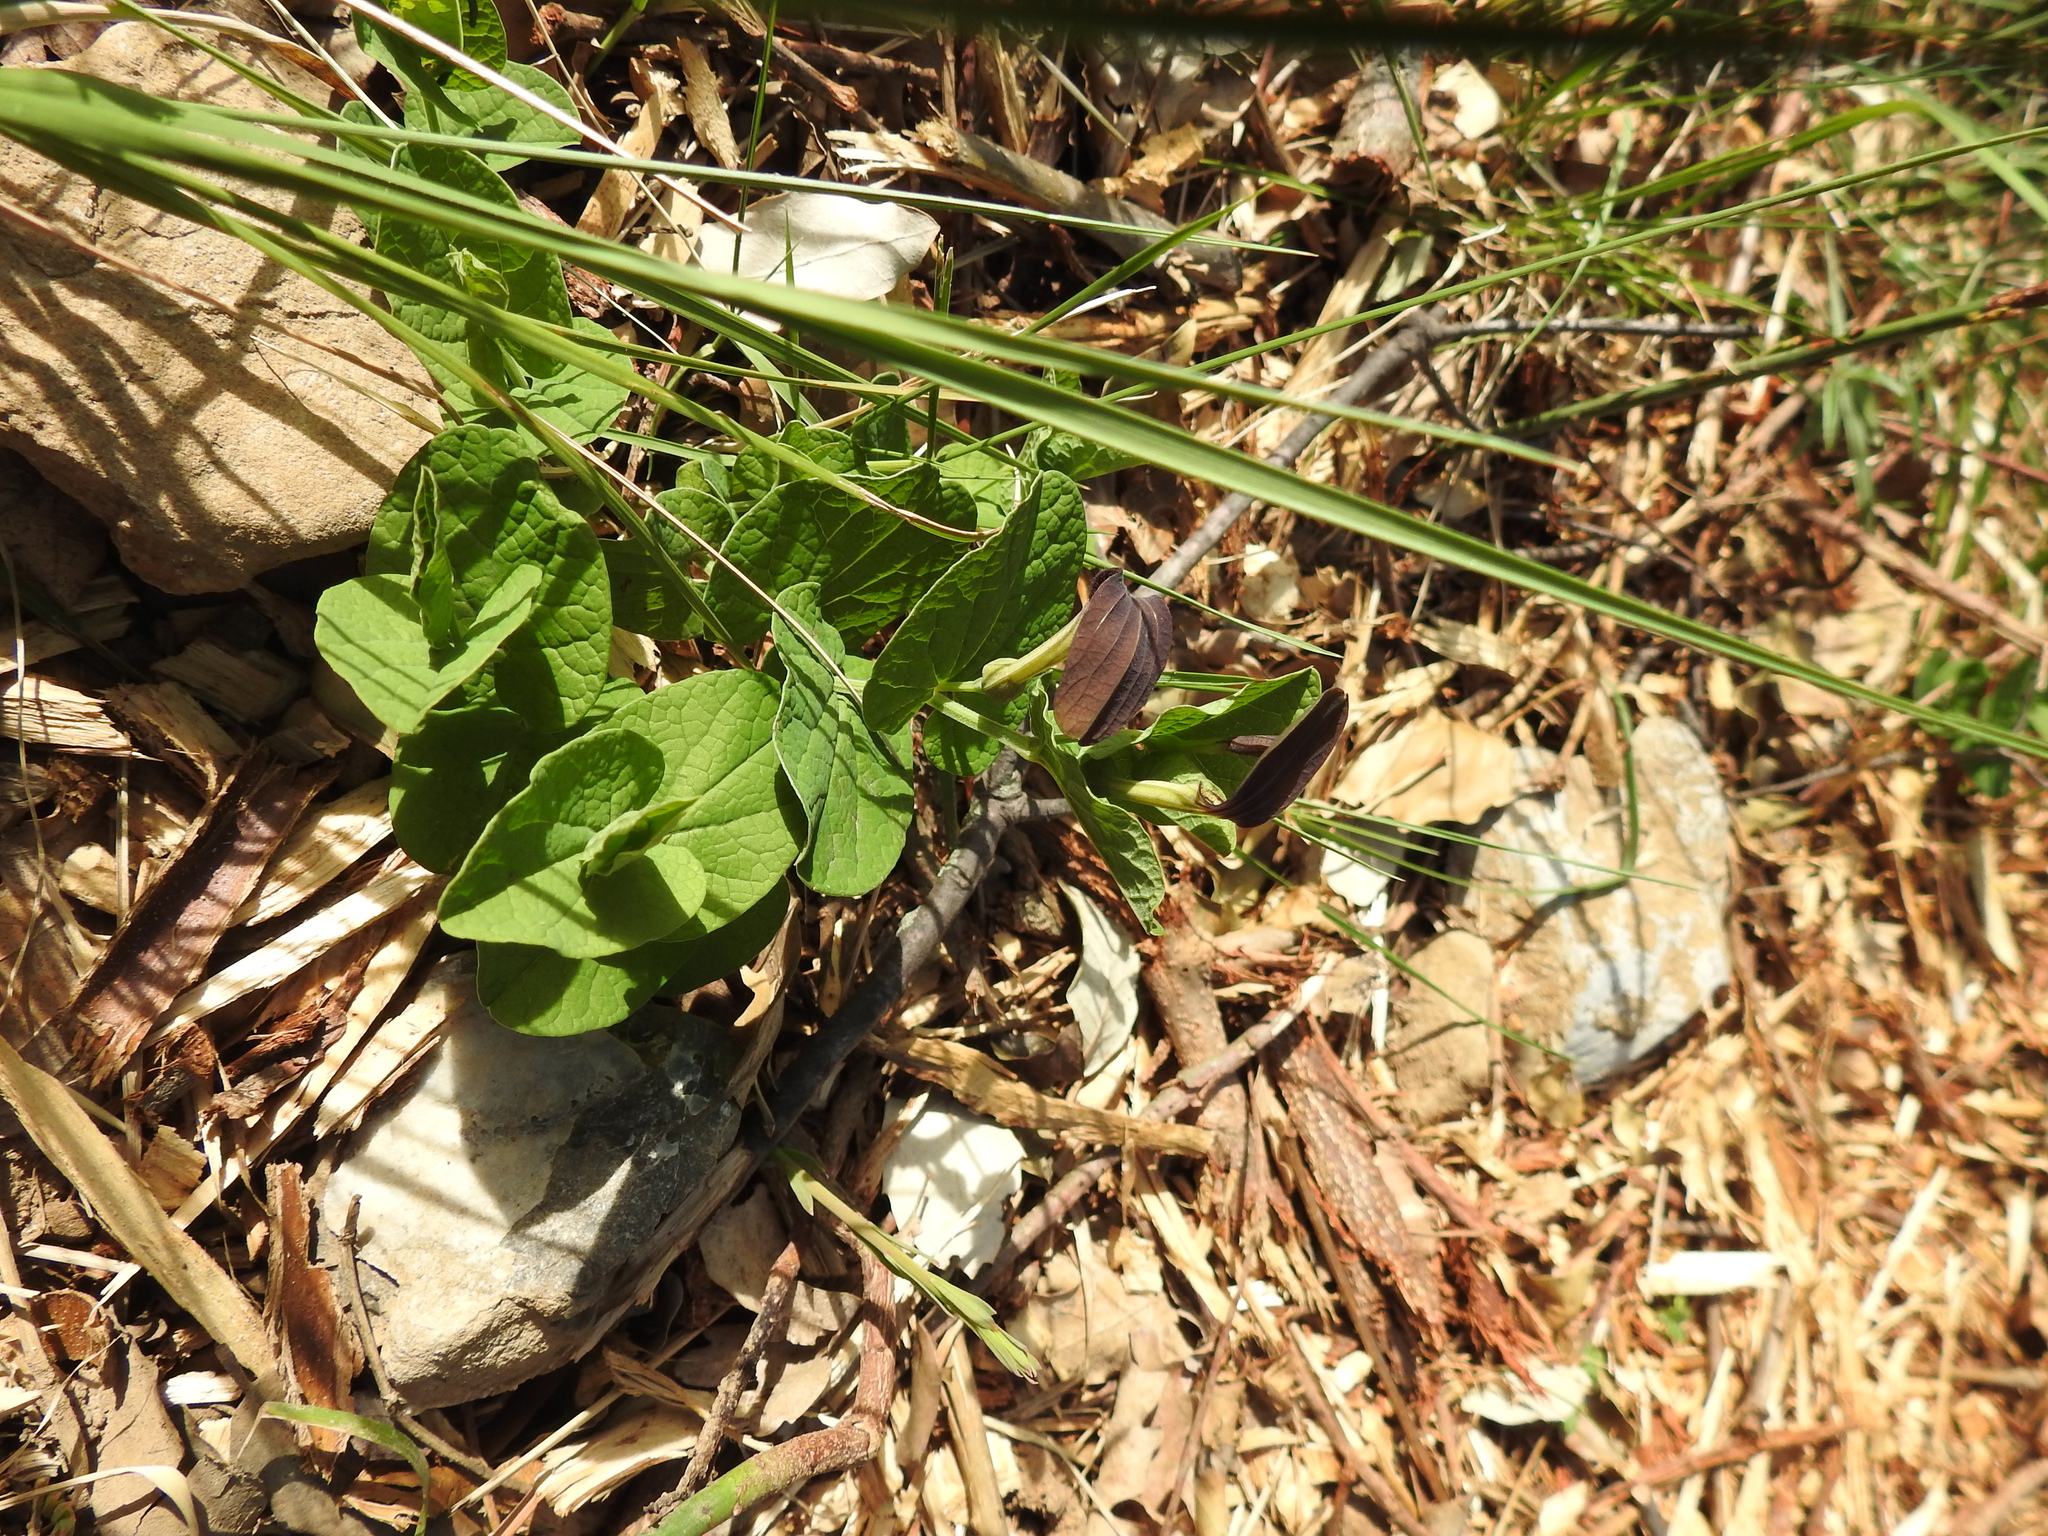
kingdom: Plantae
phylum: Tracheophyta
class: Magnoliopsida
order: Piperales
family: Aristolochiaceae
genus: Aristolochia
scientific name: Aristolochia rotunda
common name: Smearwort
